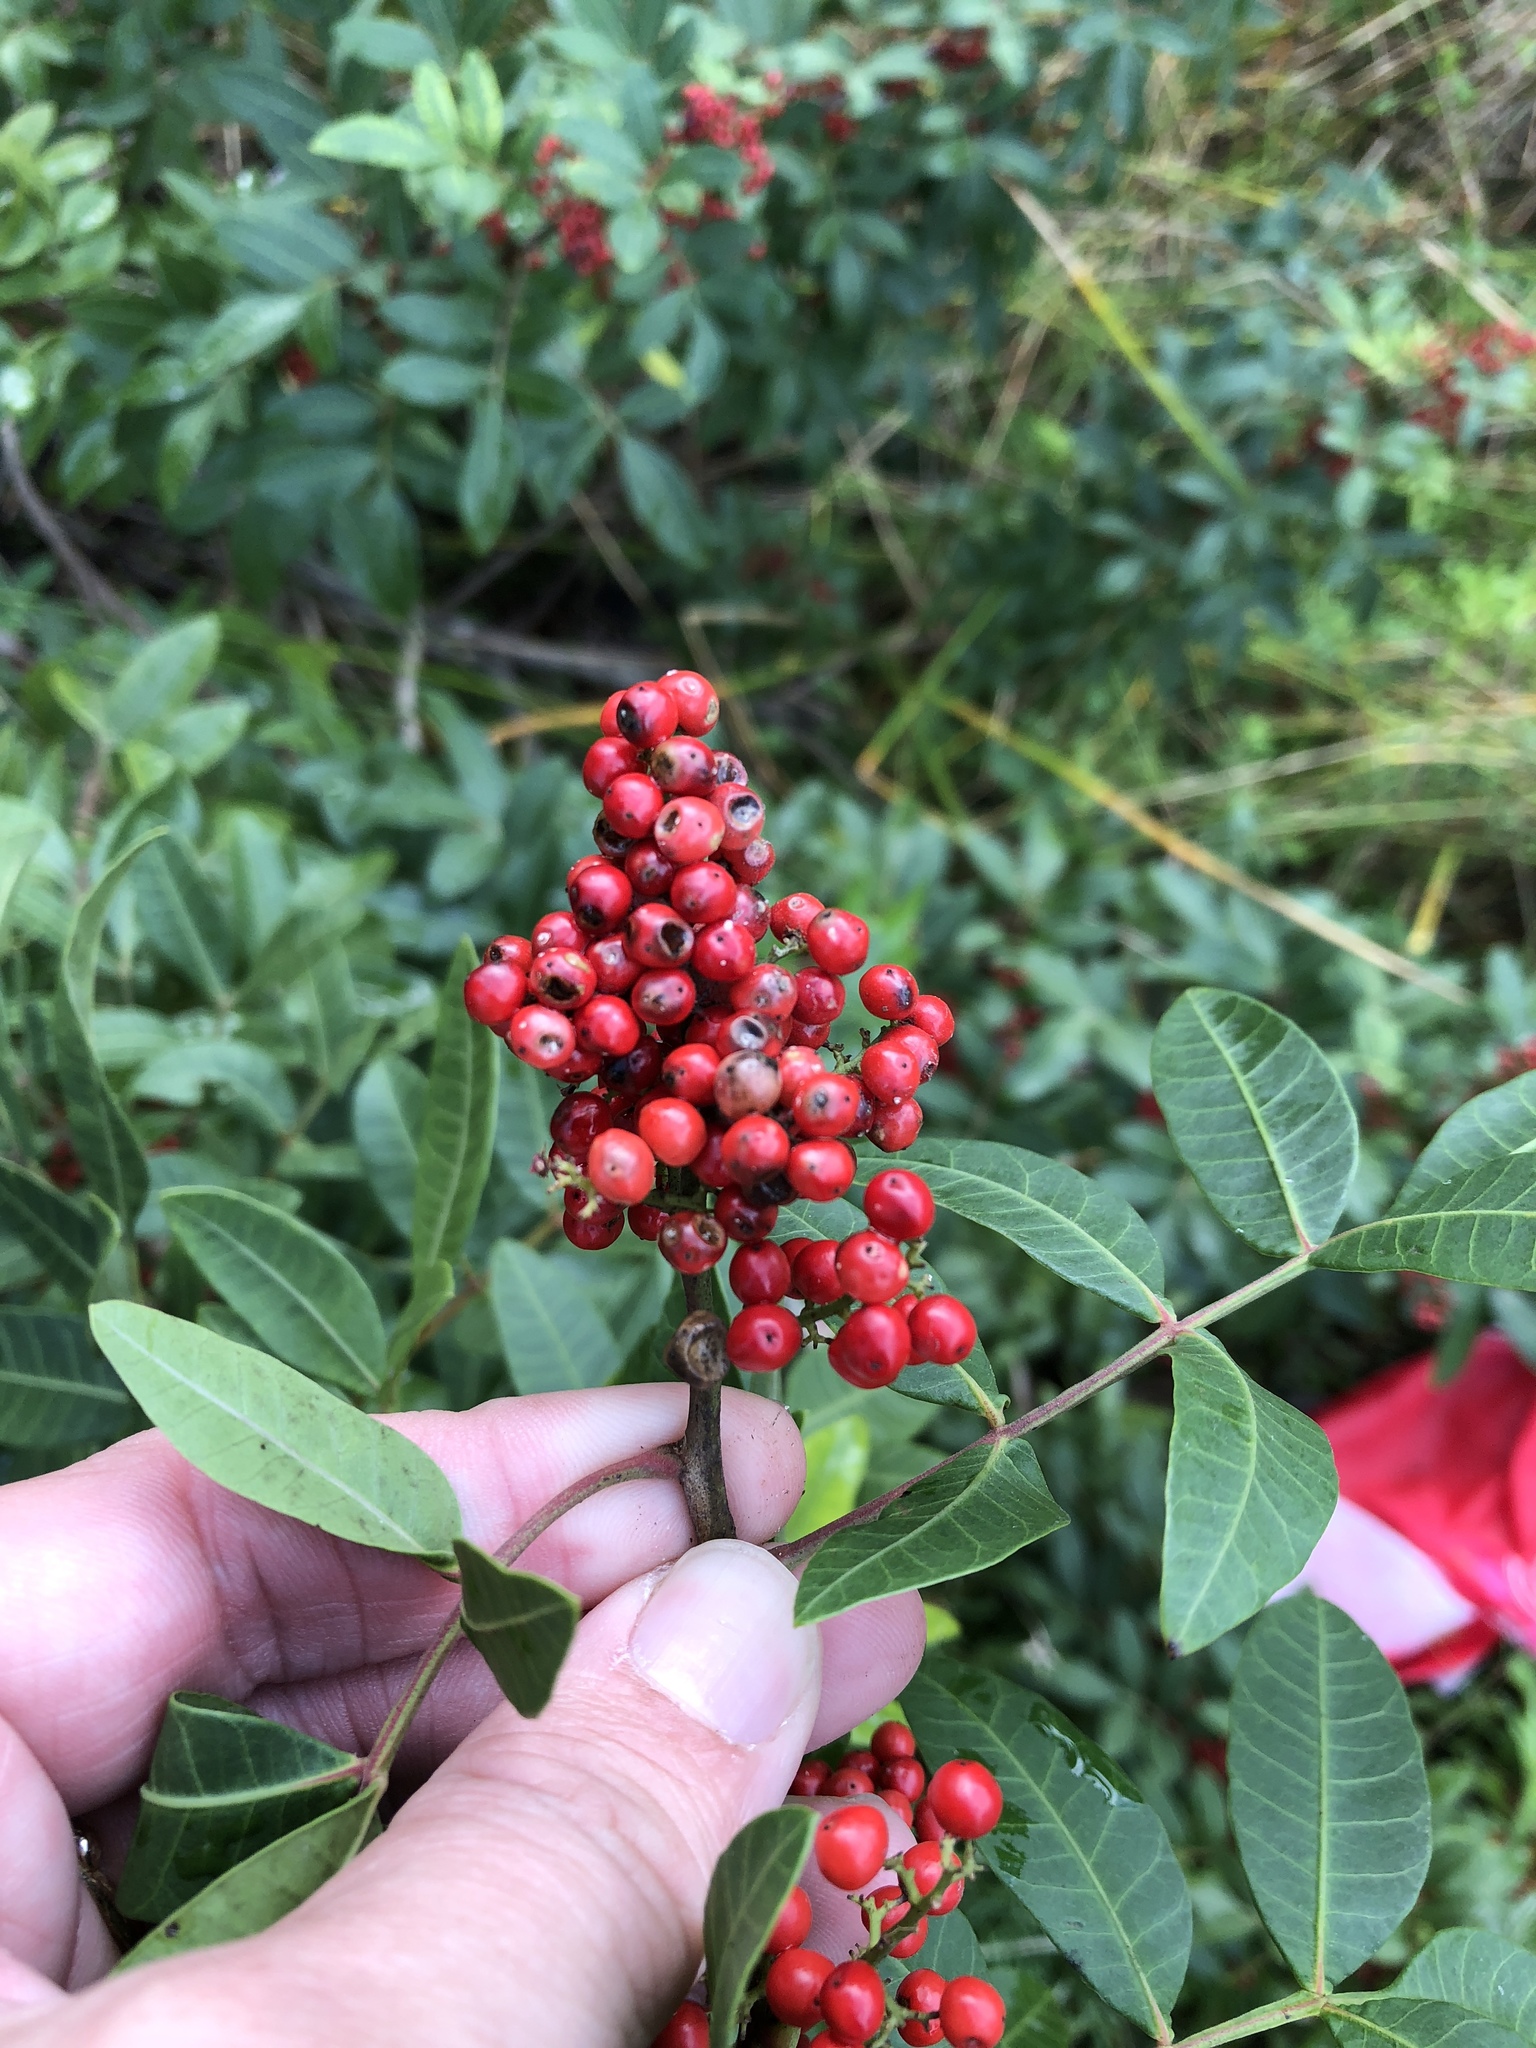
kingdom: Plantae
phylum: Tracheophyta
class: Magnoliopsida
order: Sapindales
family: Anacardiaceae
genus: Schinus
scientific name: Schinus terebinthifolia
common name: Brazilian peppertree
